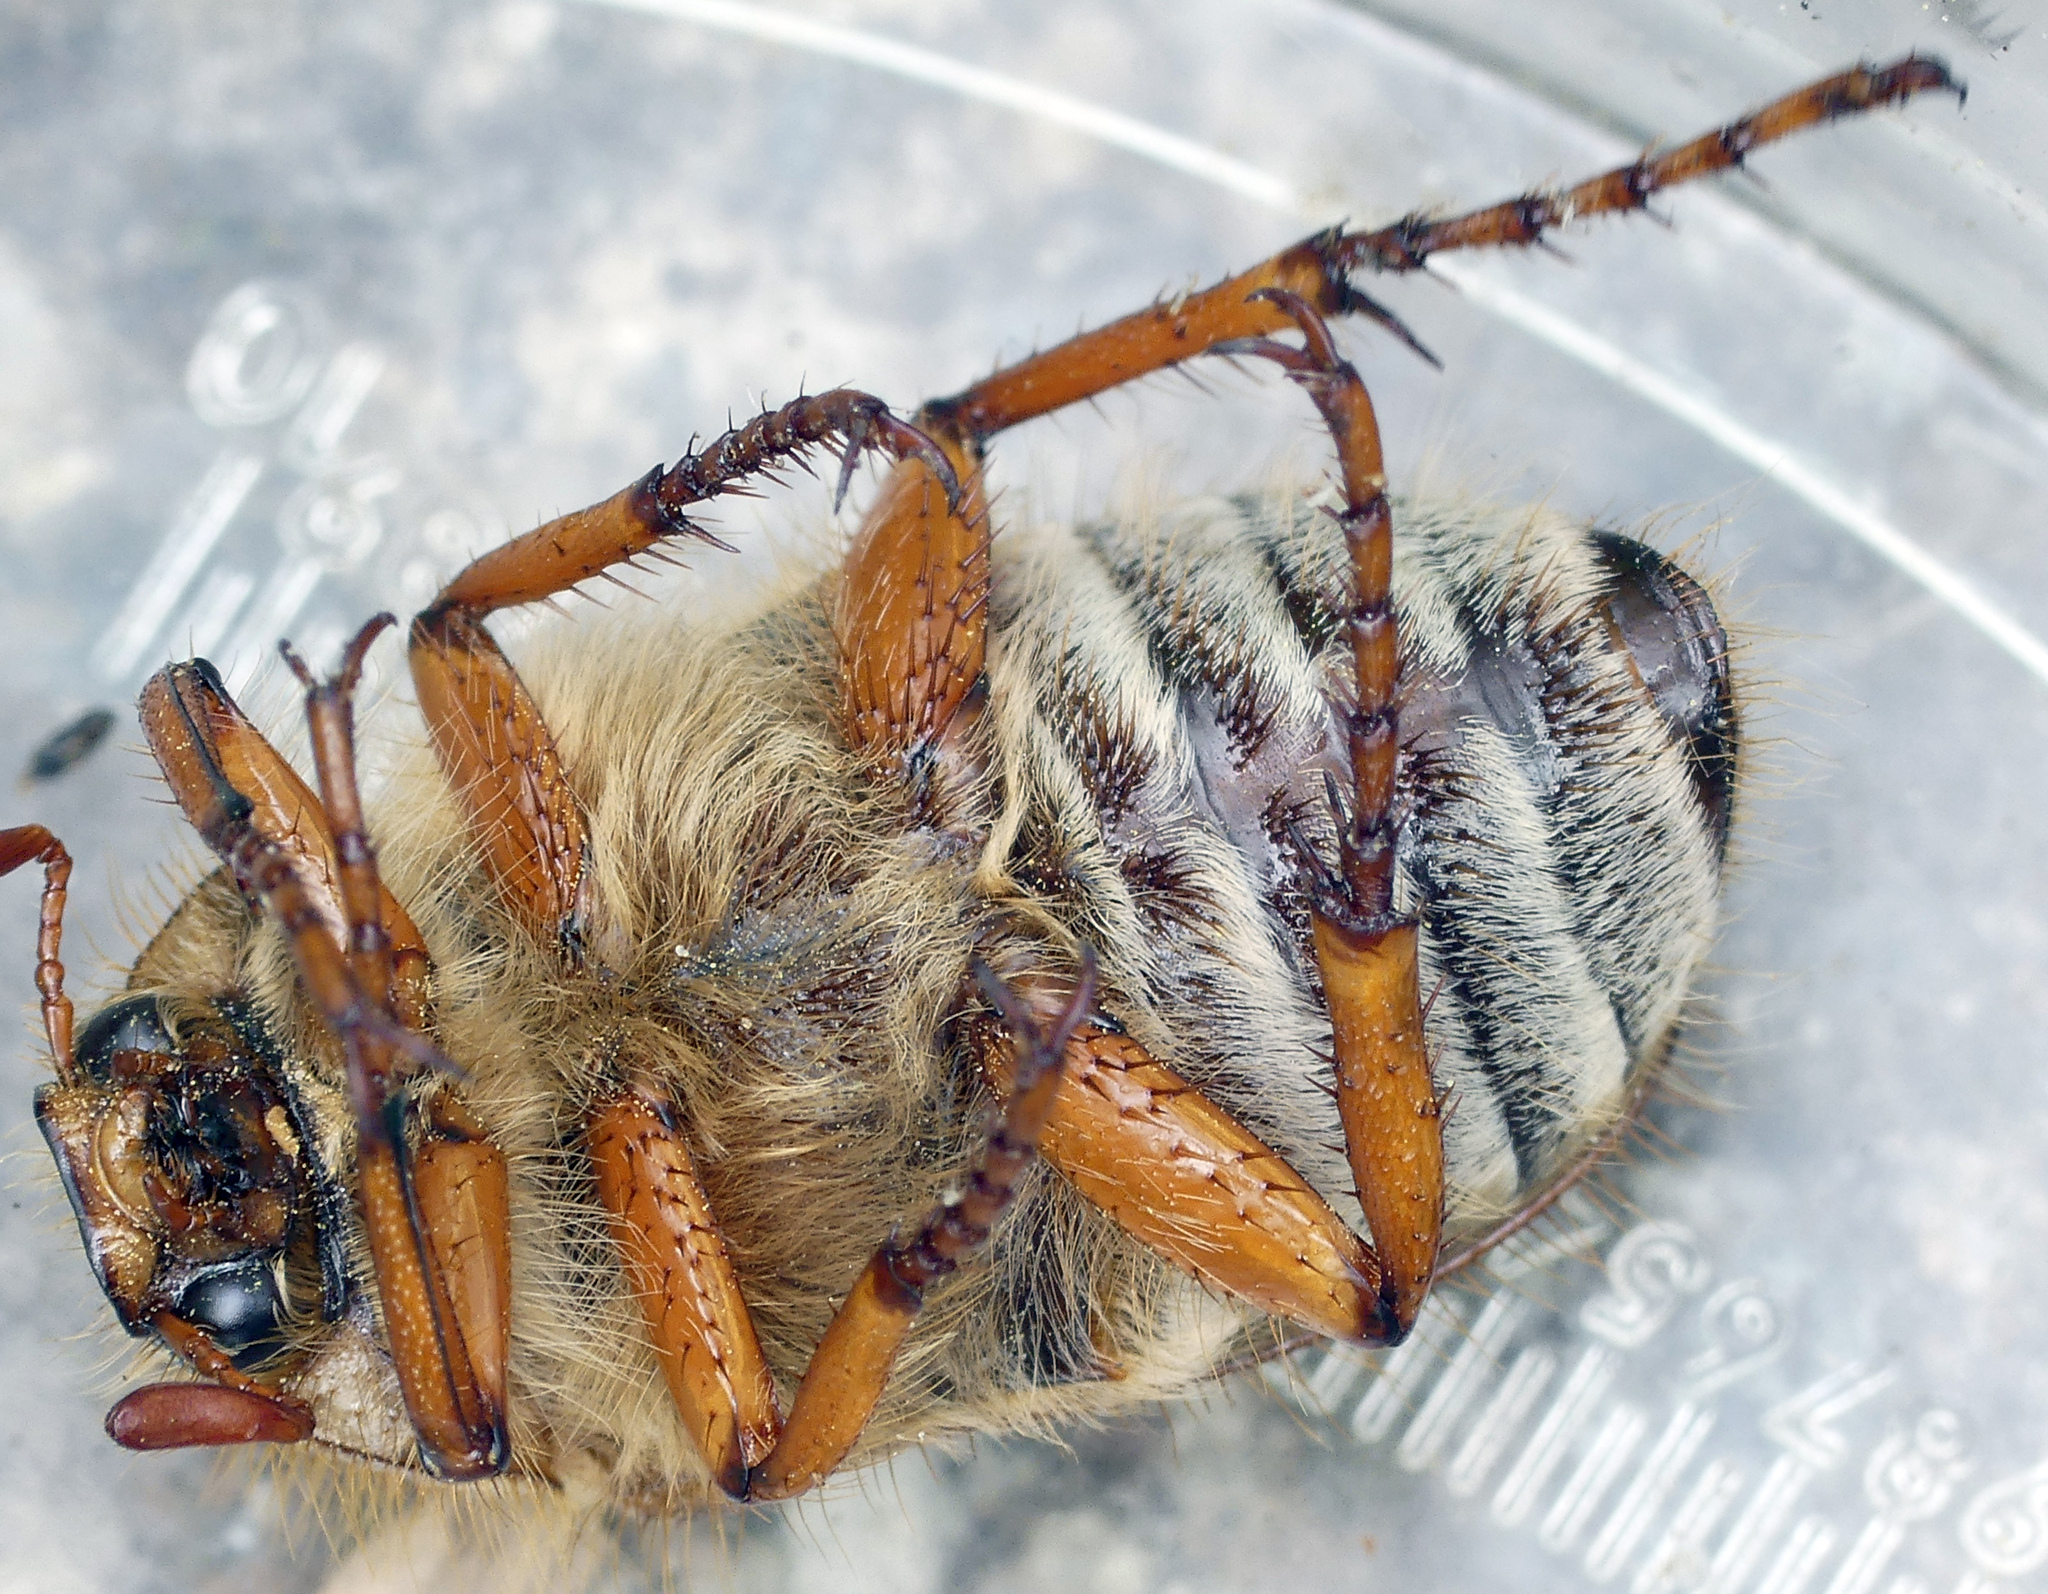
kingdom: Animalia
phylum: Arthropoda
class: Insecta
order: Coleoptera
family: Scarabaeidae
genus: Amphimallon
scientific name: Amphimallon solstitiale
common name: Summer chafer
